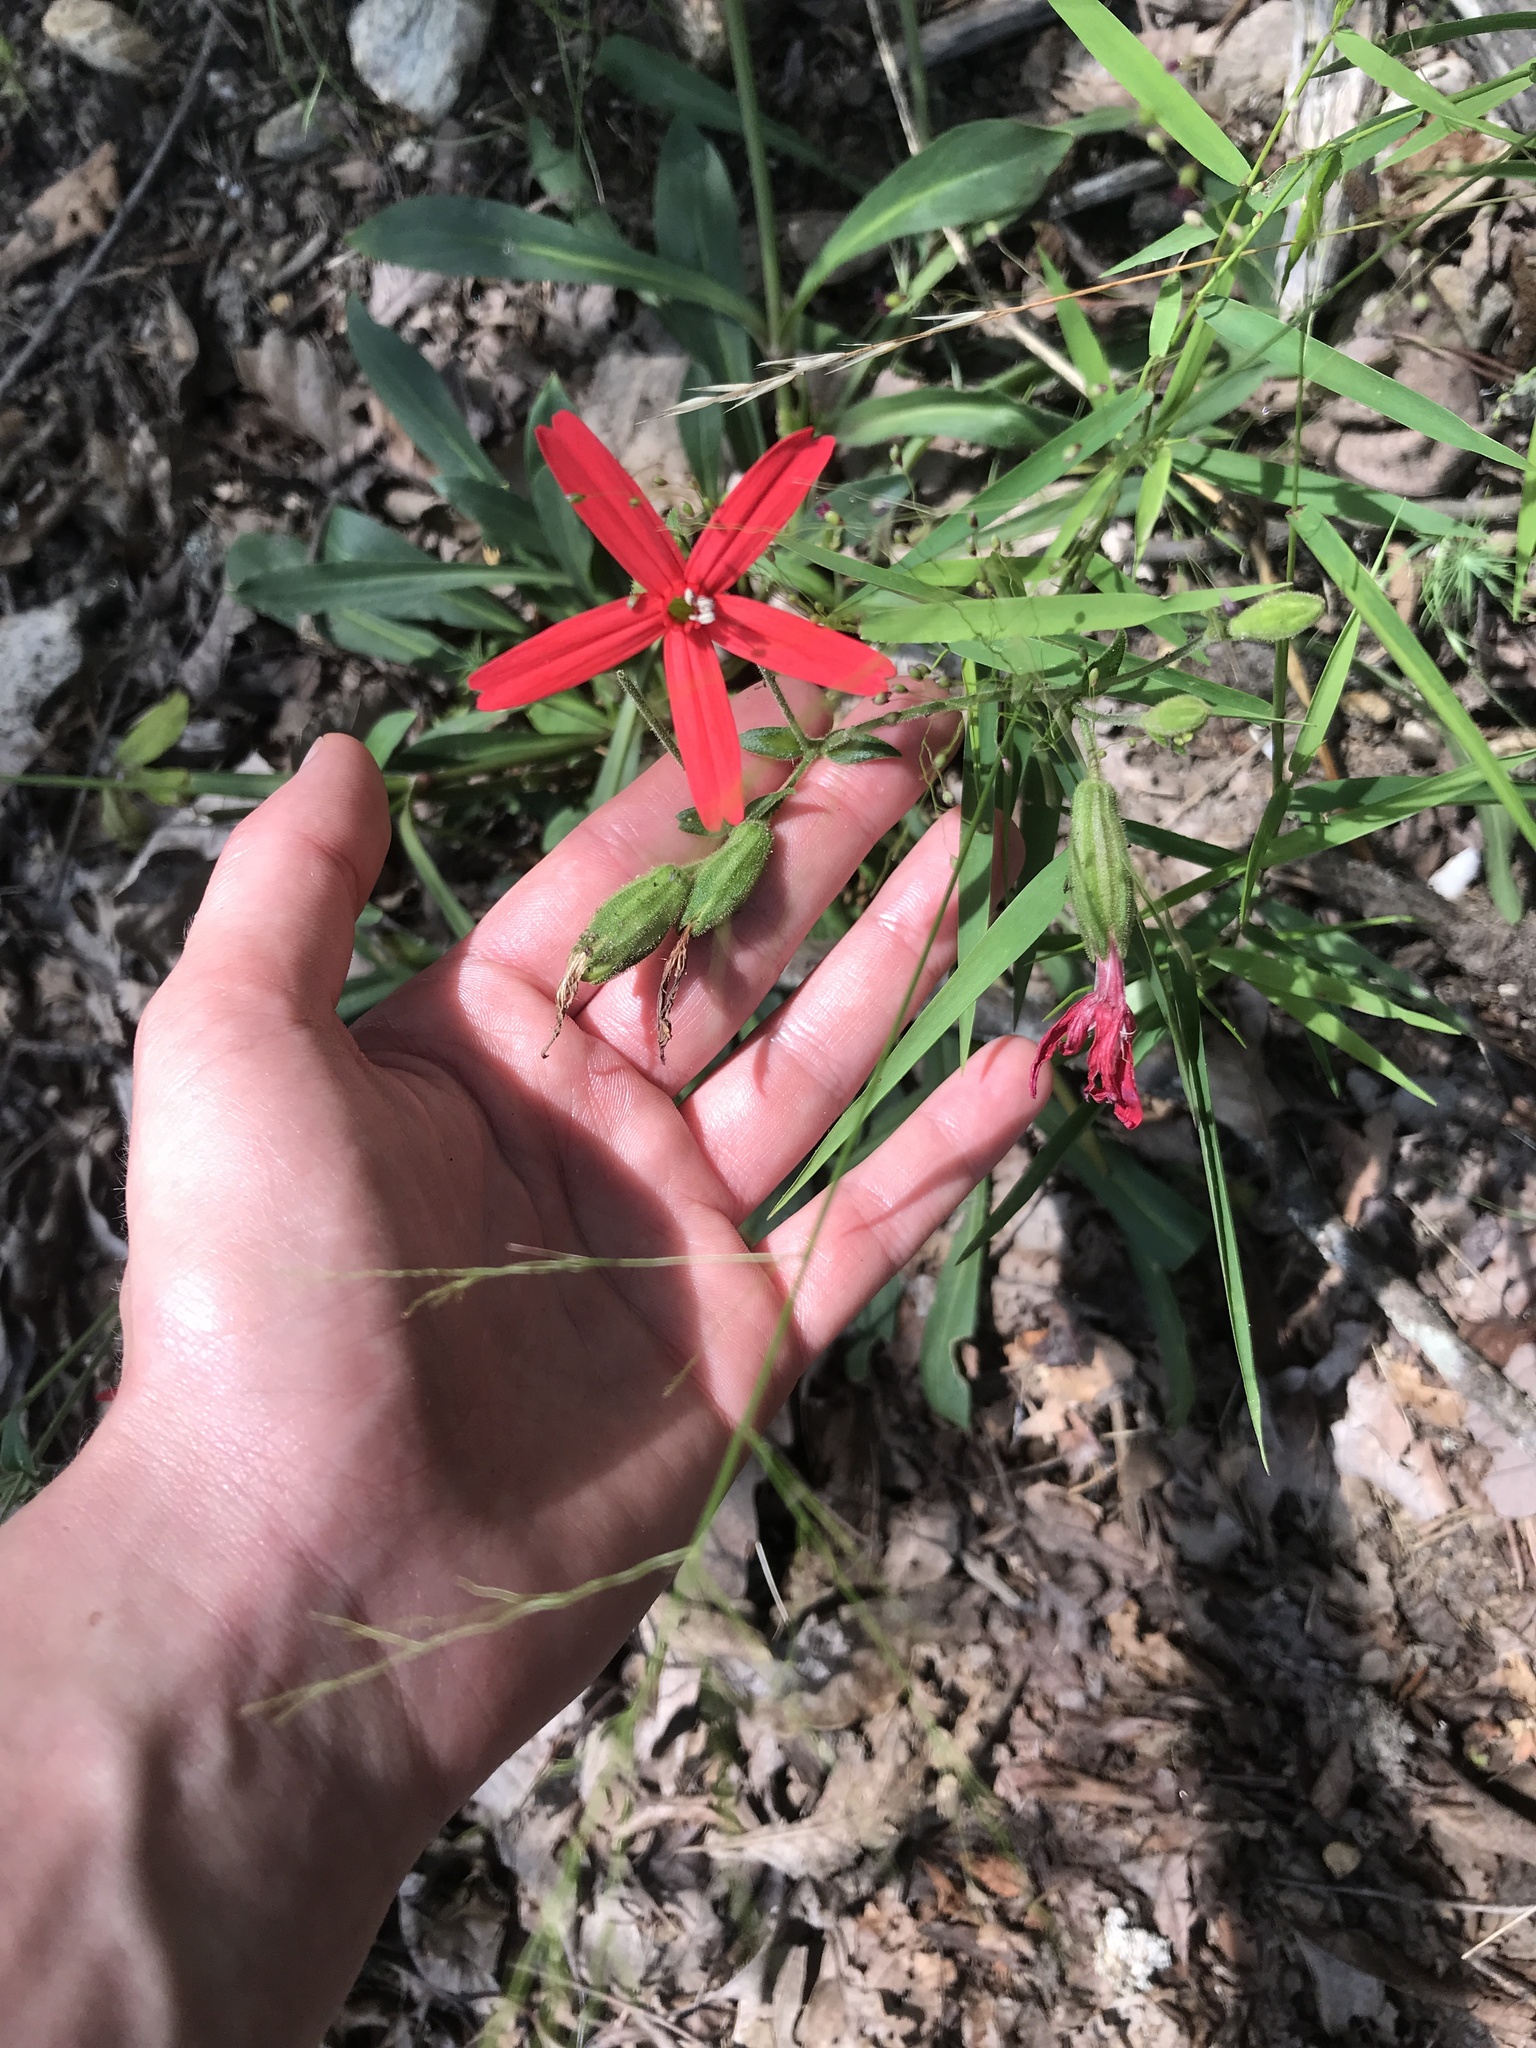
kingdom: Plantae
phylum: Tracheophyta
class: Magnoliopsida
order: Caryophyllales
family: Caryophyllaceae
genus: Silene
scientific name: Silene virginica
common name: Fire-pink
